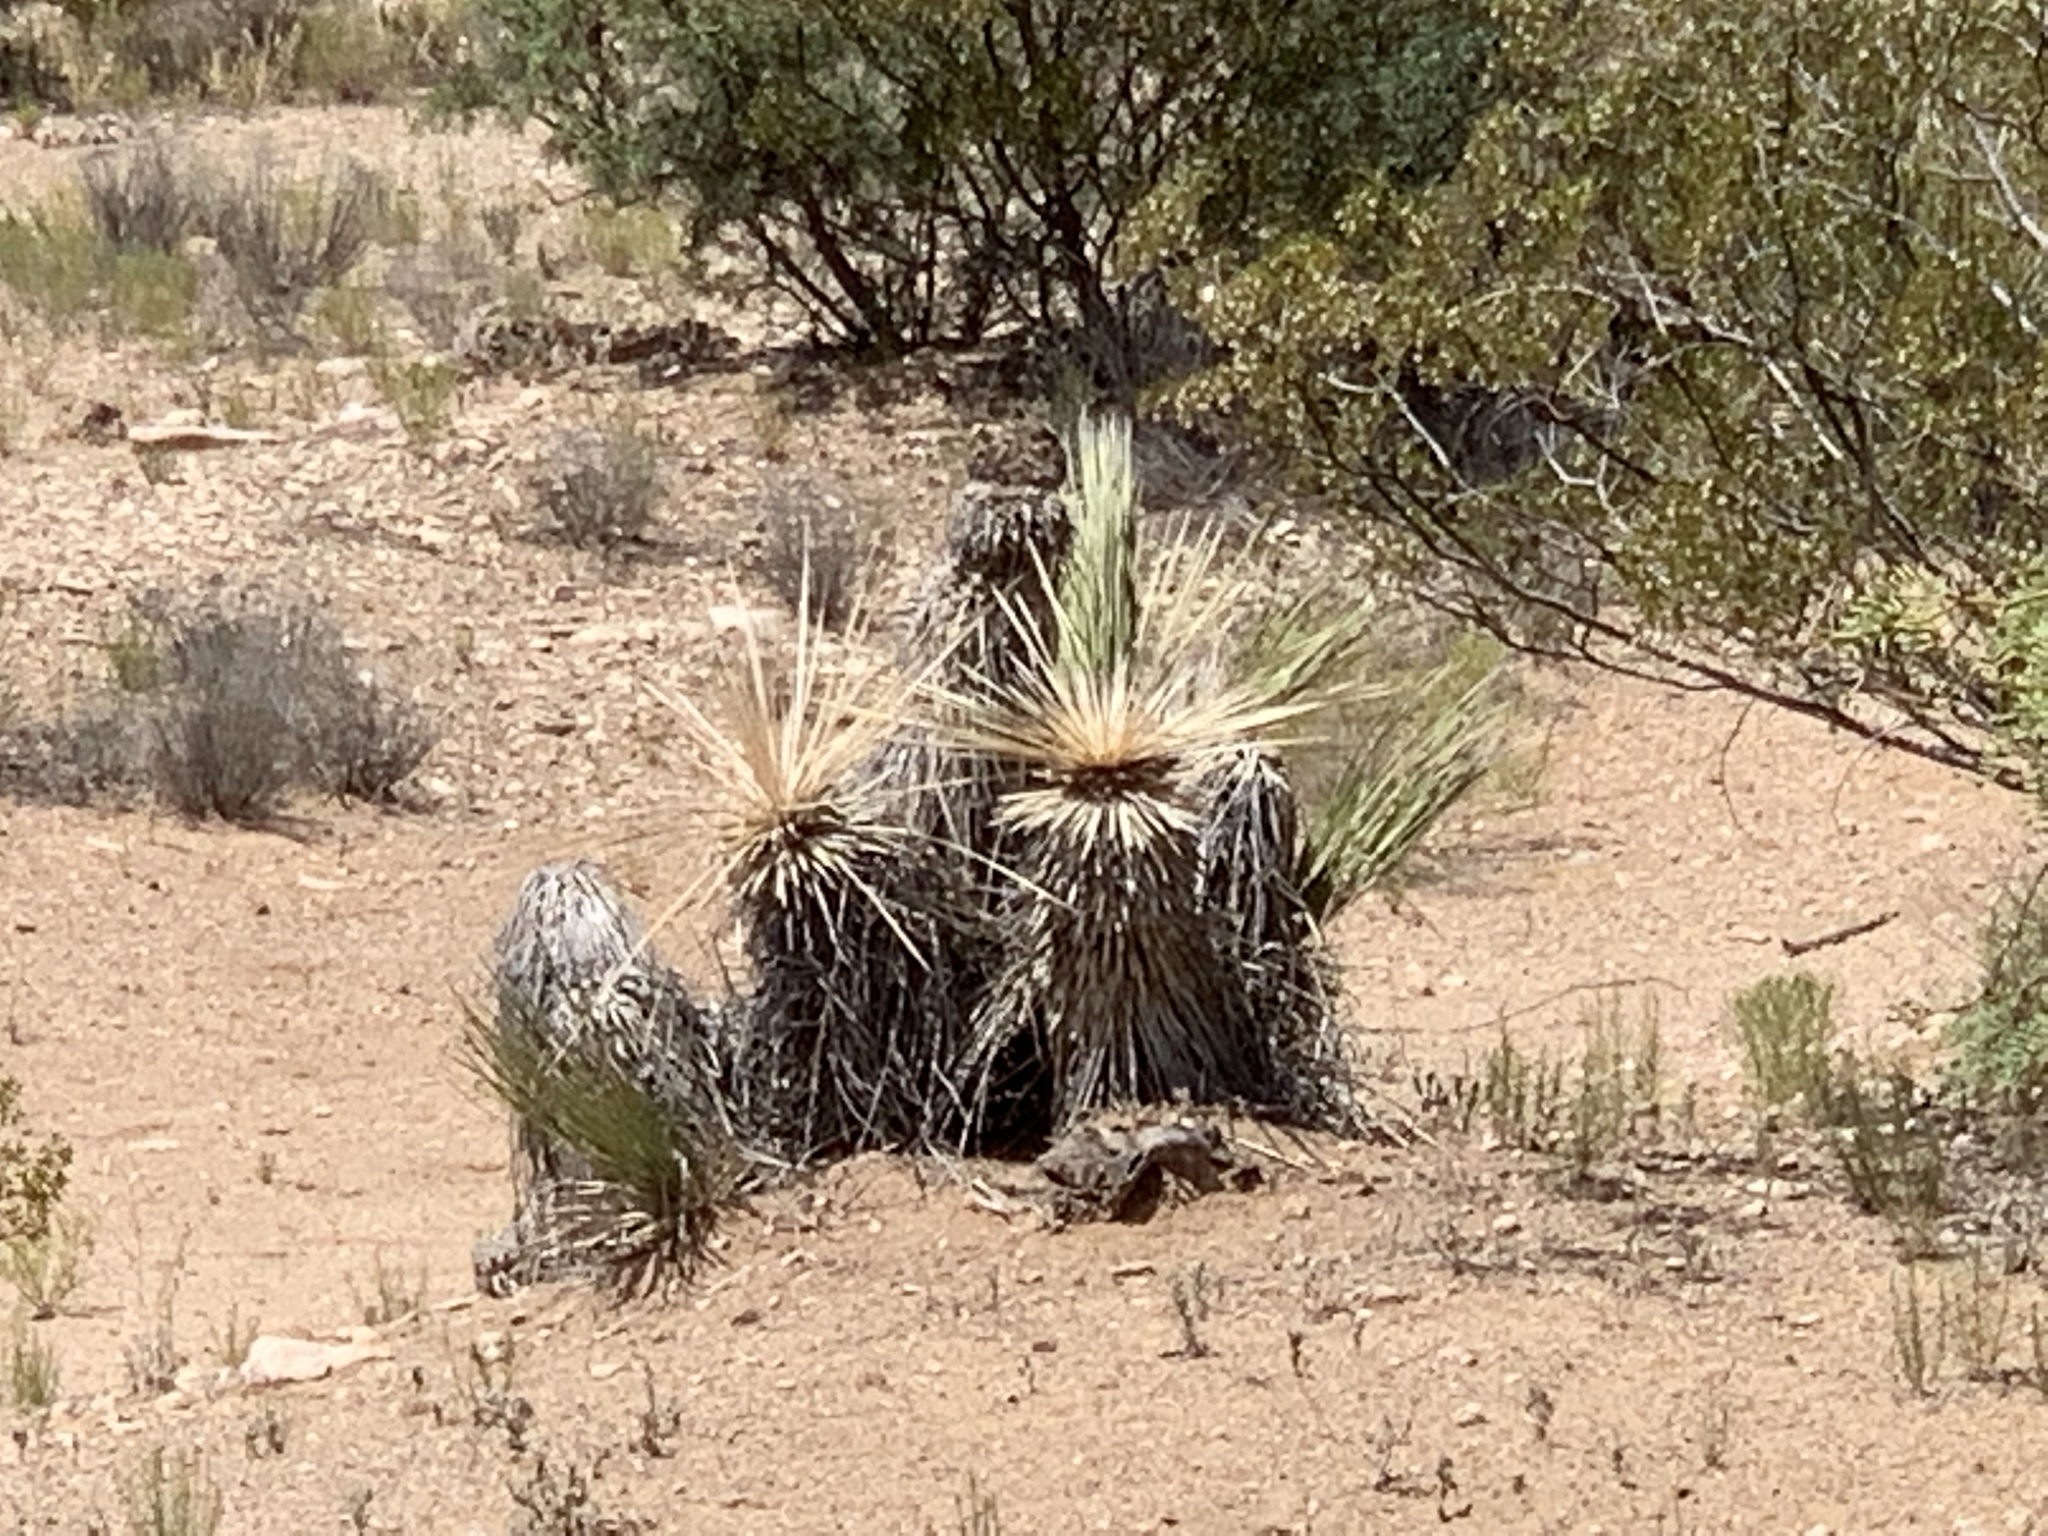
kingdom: Plantae
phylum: Tracheophyta
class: Liliopsida
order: Asparagales
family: Asparagaceae
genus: Yucca
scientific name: Yucca elata
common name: Palmella
